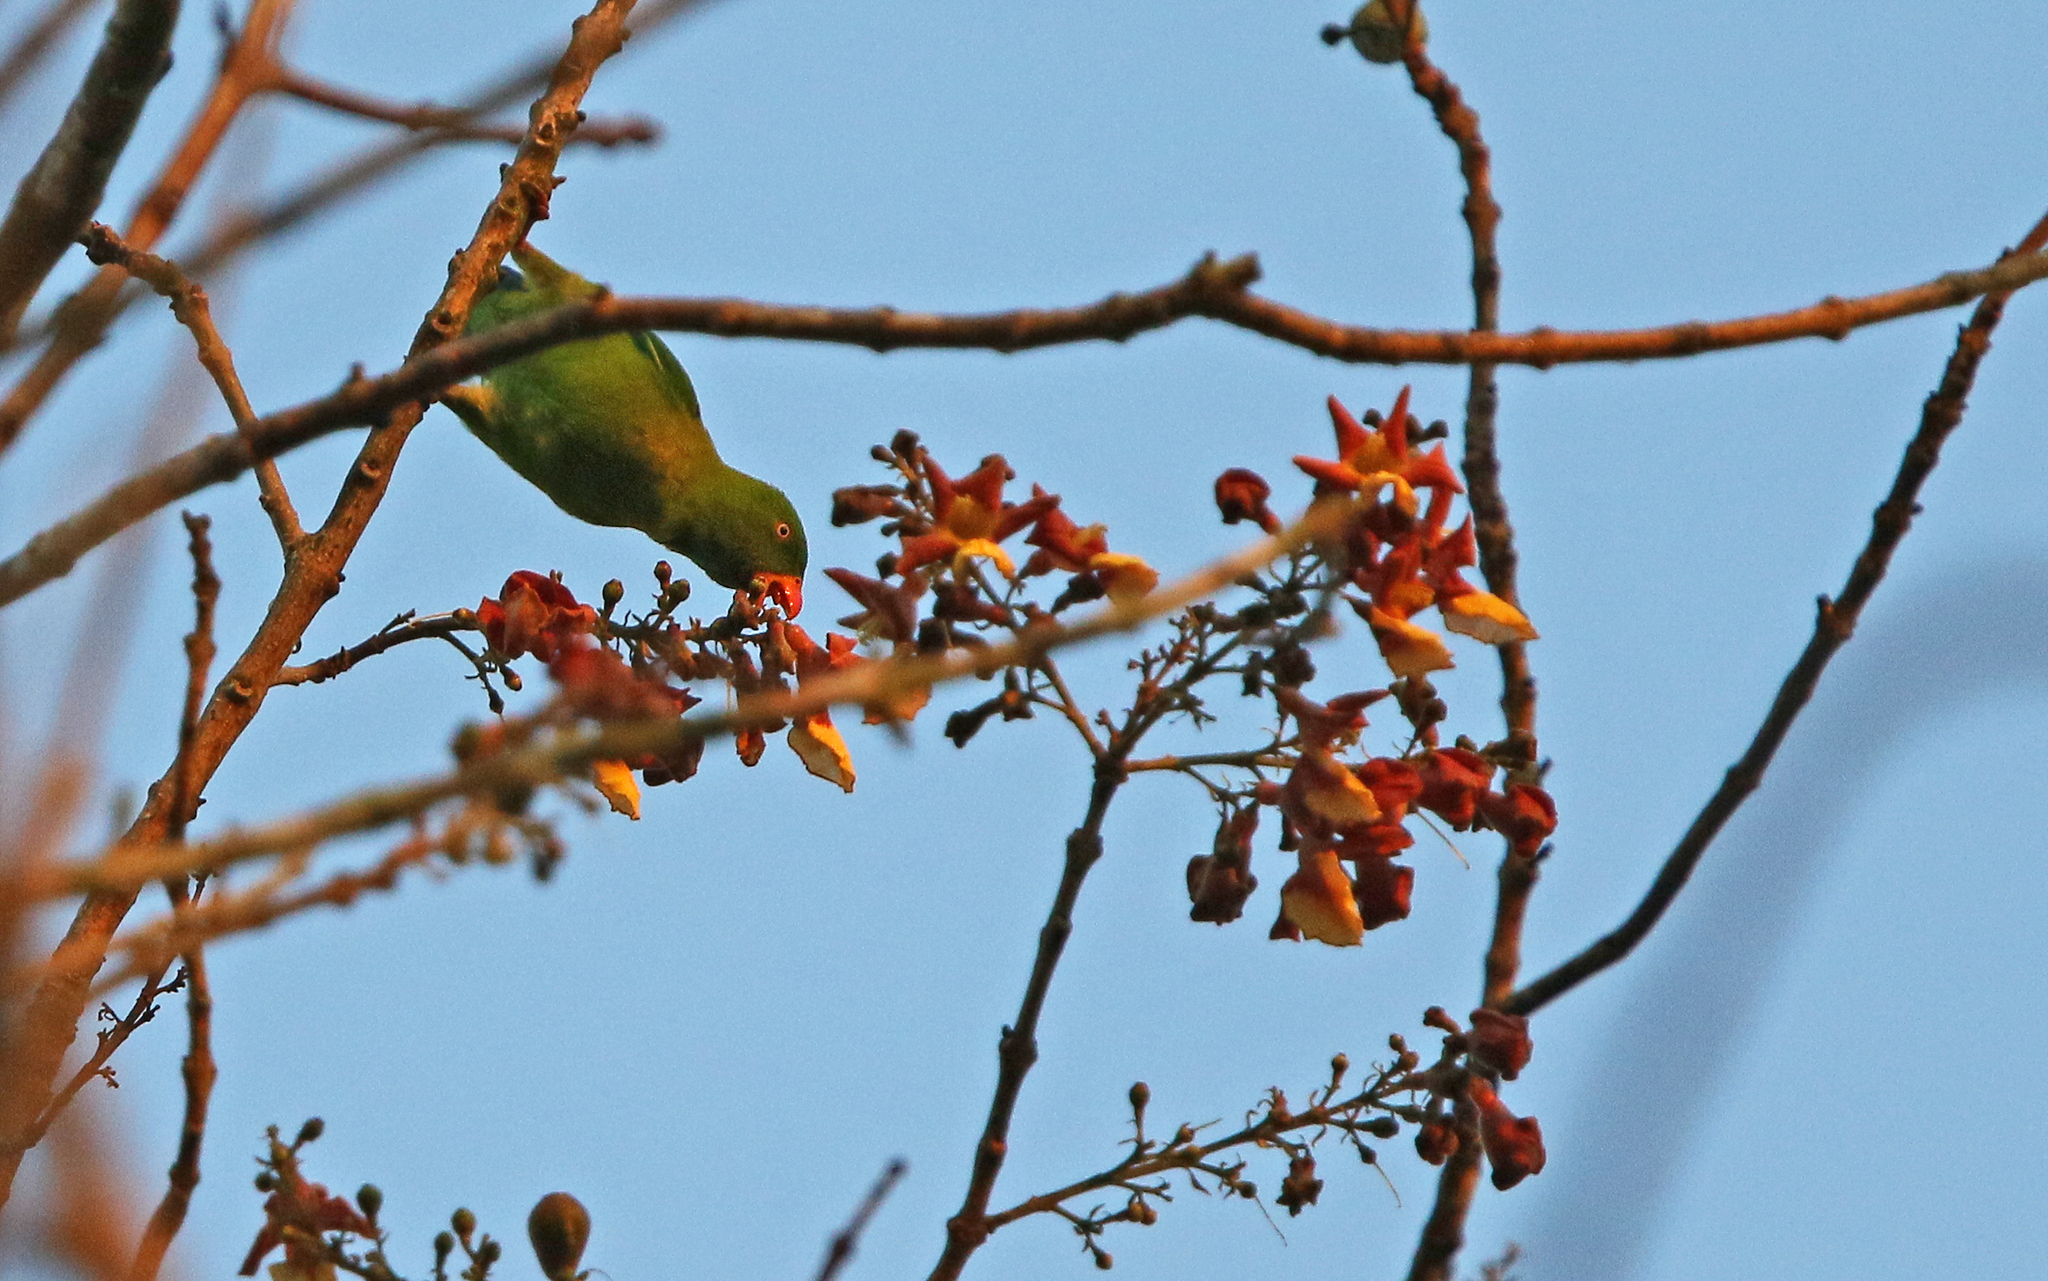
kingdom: Animalia
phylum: Chordata
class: Aves
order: Psittaciformes
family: Psittacidae
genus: Loriculus
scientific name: Loriculus vernalis
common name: Vernal hanging parrot
